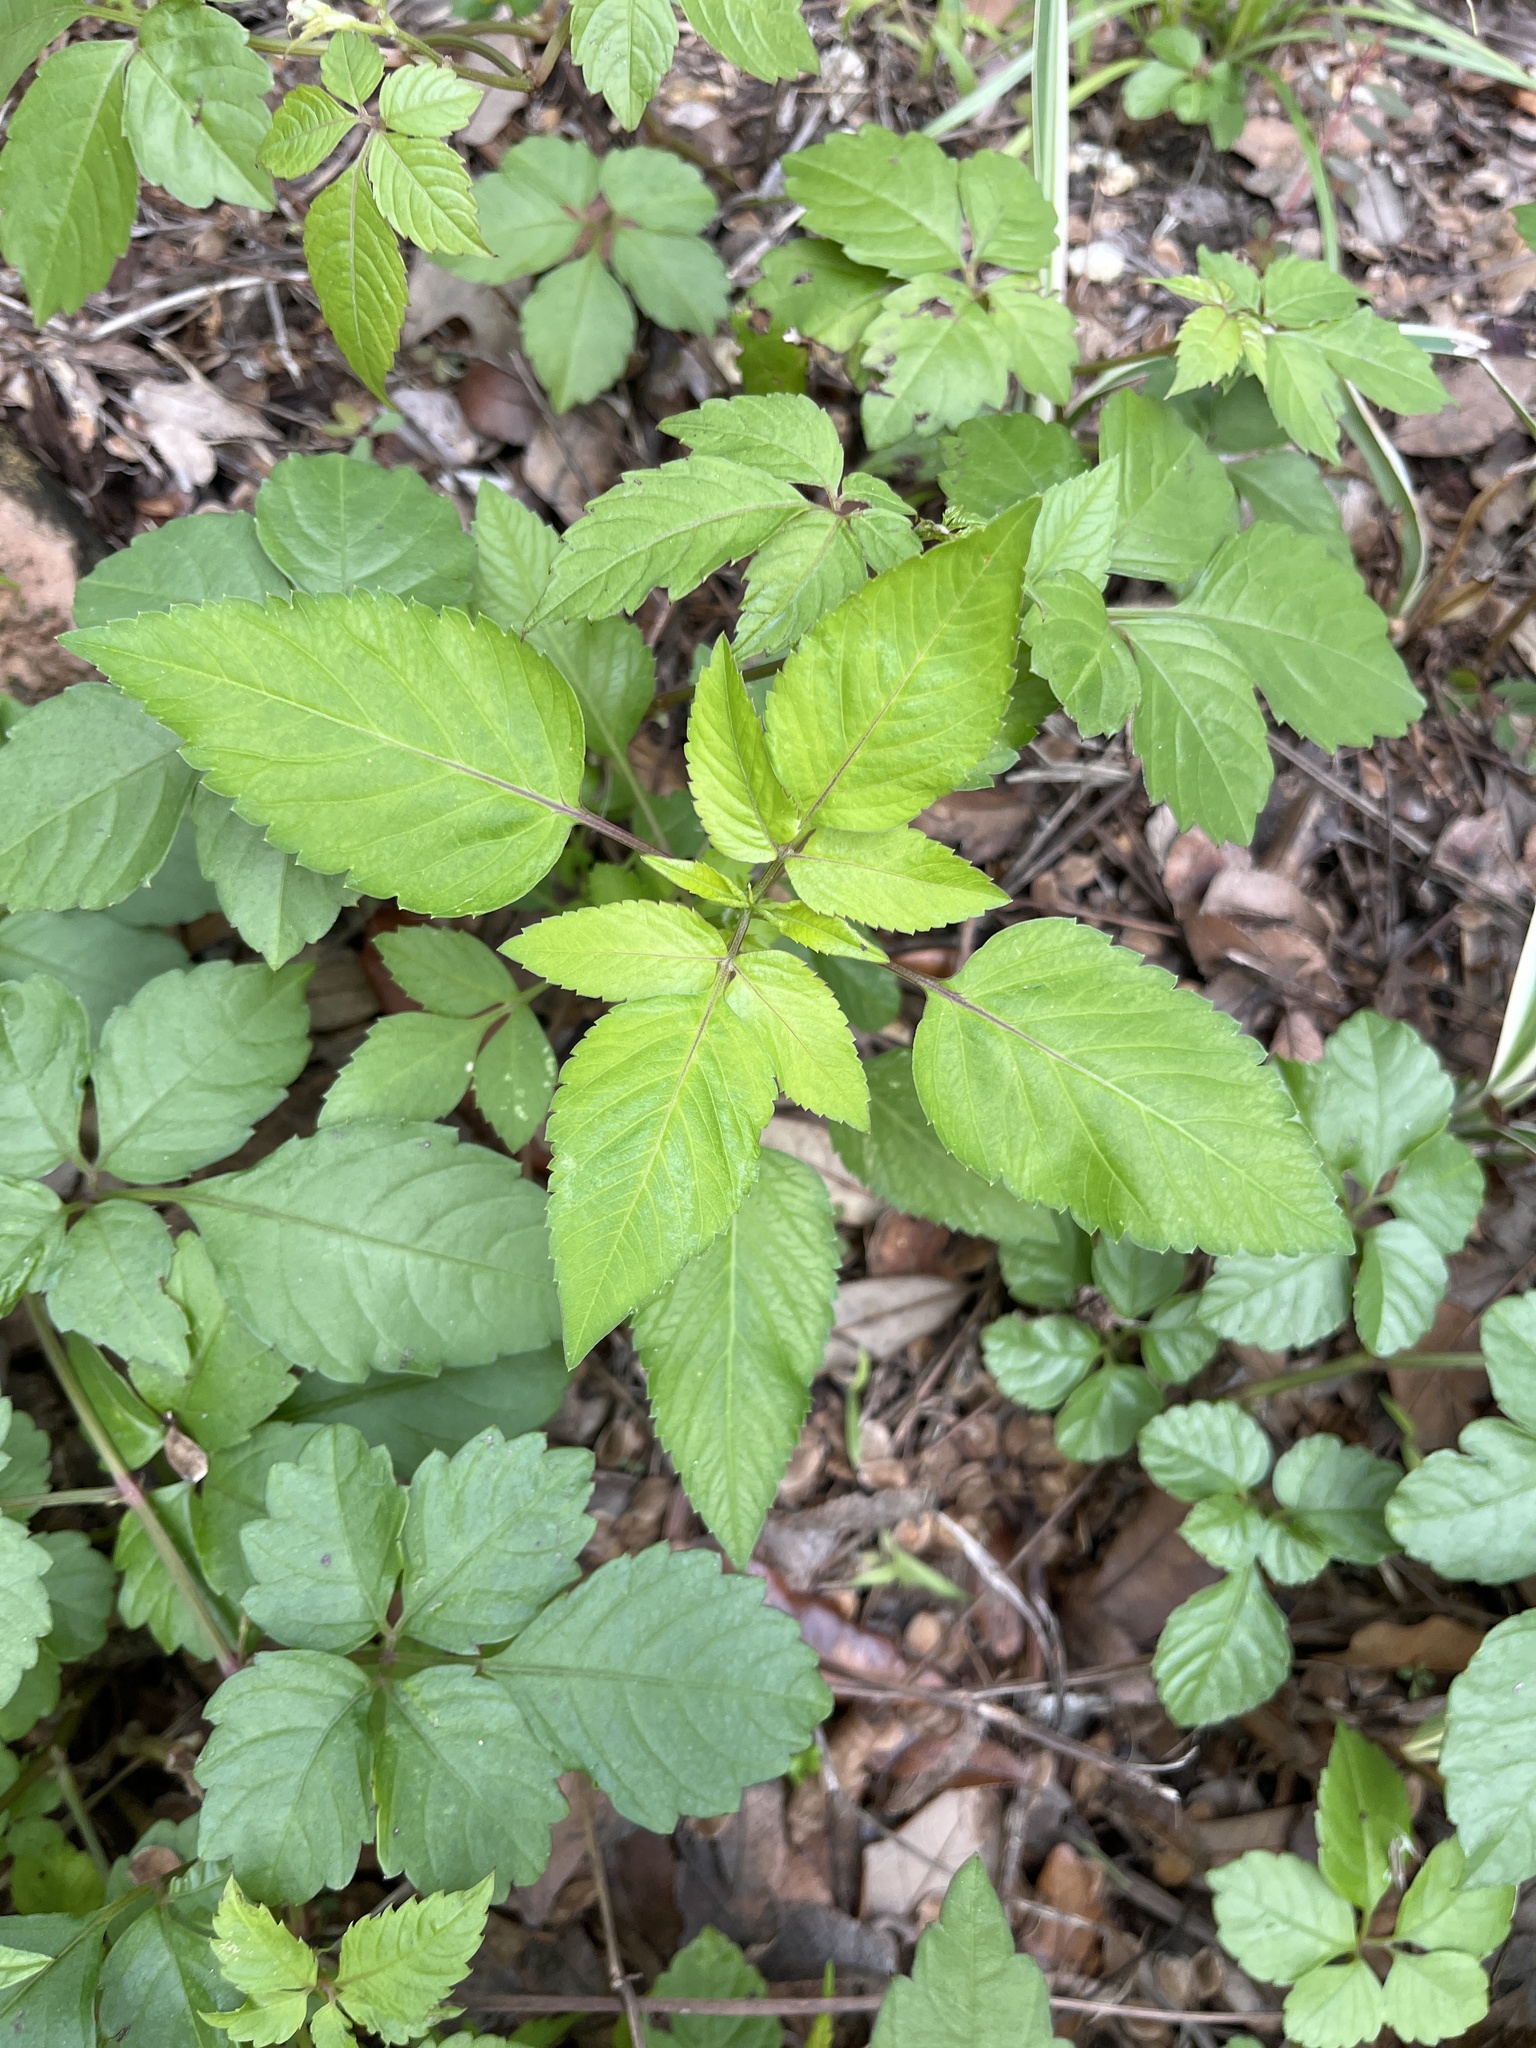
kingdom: Plantae
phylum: Tracheophyta
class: Magnoliopsida
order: Asterales
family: Asteraceae
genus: Bidens
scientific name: Bidens alba
